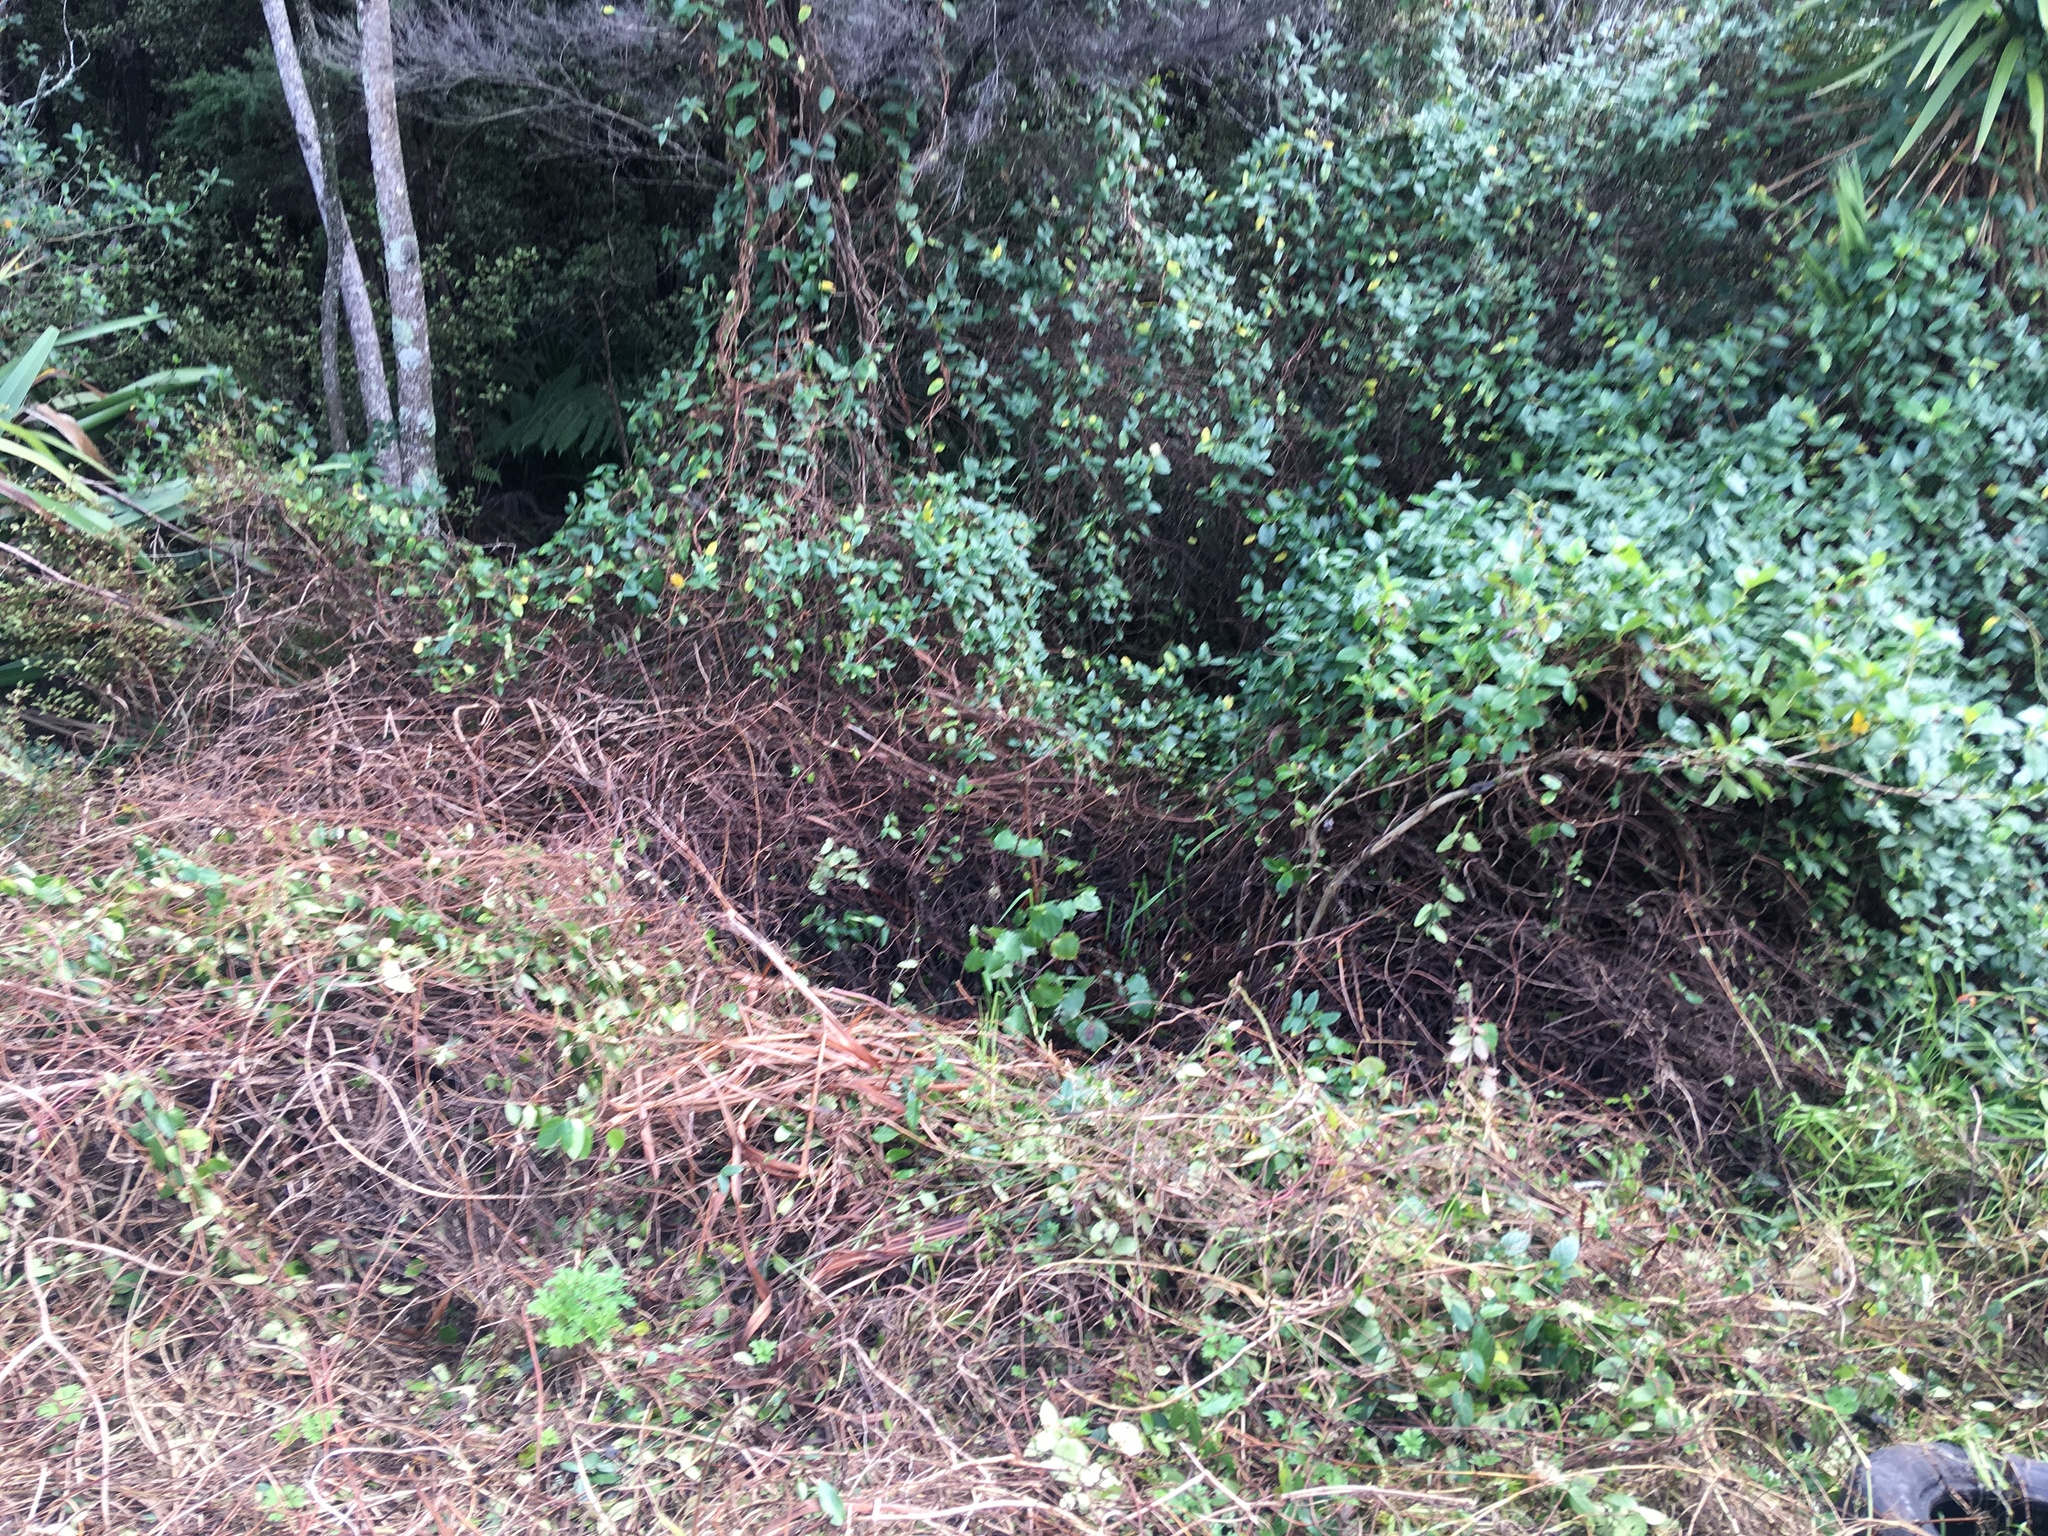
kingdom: Plantae
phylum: Tracheophyta
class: Magnoliopsida
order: Piperales
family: Piperaceae
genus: Macropiper
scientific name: Macropiper excelsum
